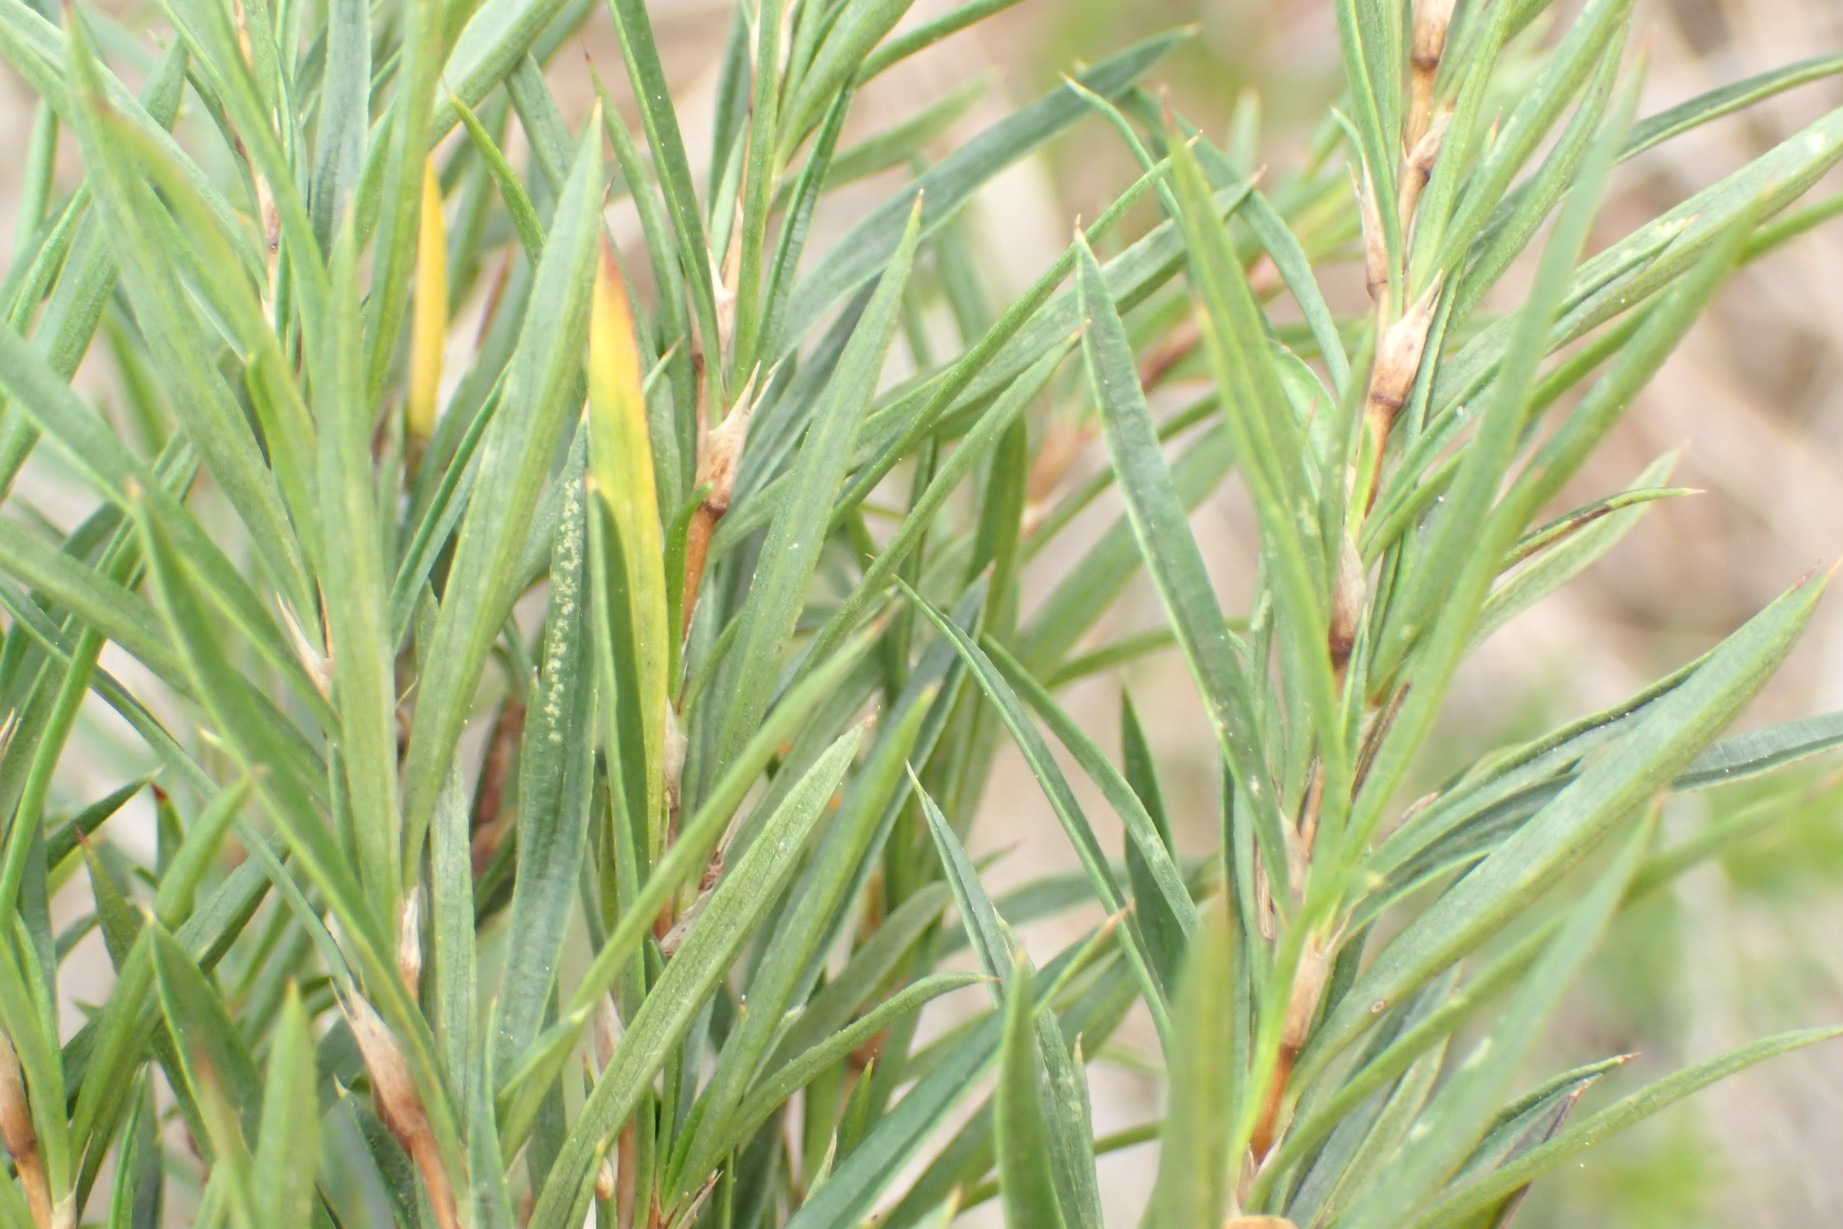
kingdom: Plantae
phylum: Tracheophyta
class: Magnoliopsida
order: Rosales
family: Rosaceae
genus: Cliffortia
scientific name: Cliffortia strobilifera
